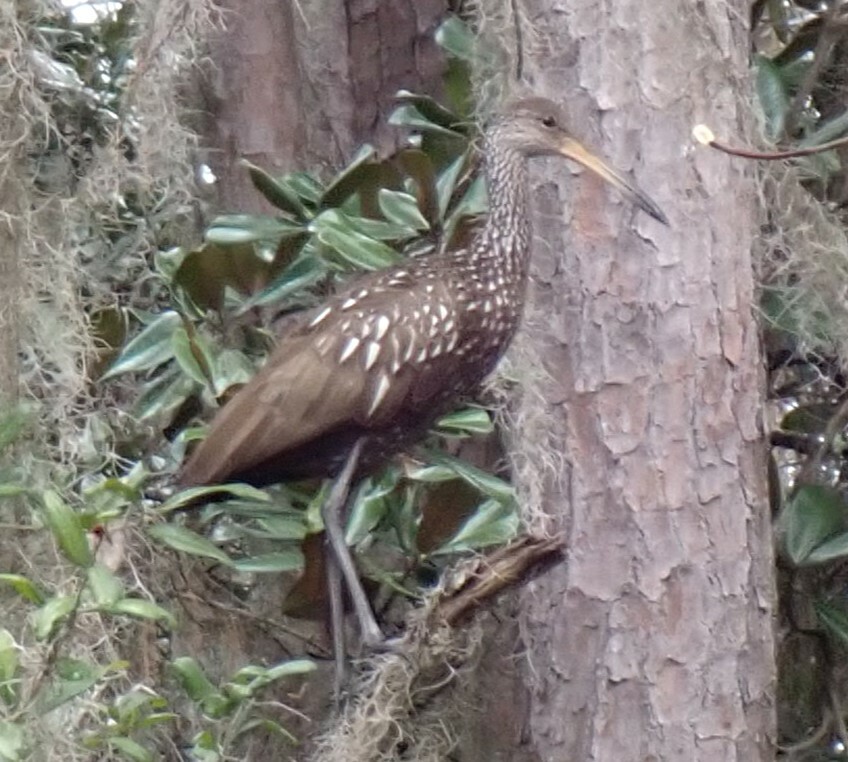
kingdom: Animalia
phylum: Chordata
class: Aves
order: Gruiformes
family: Aramidae
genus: Aramus
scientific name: Aramus guarauna
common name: Limpkin
